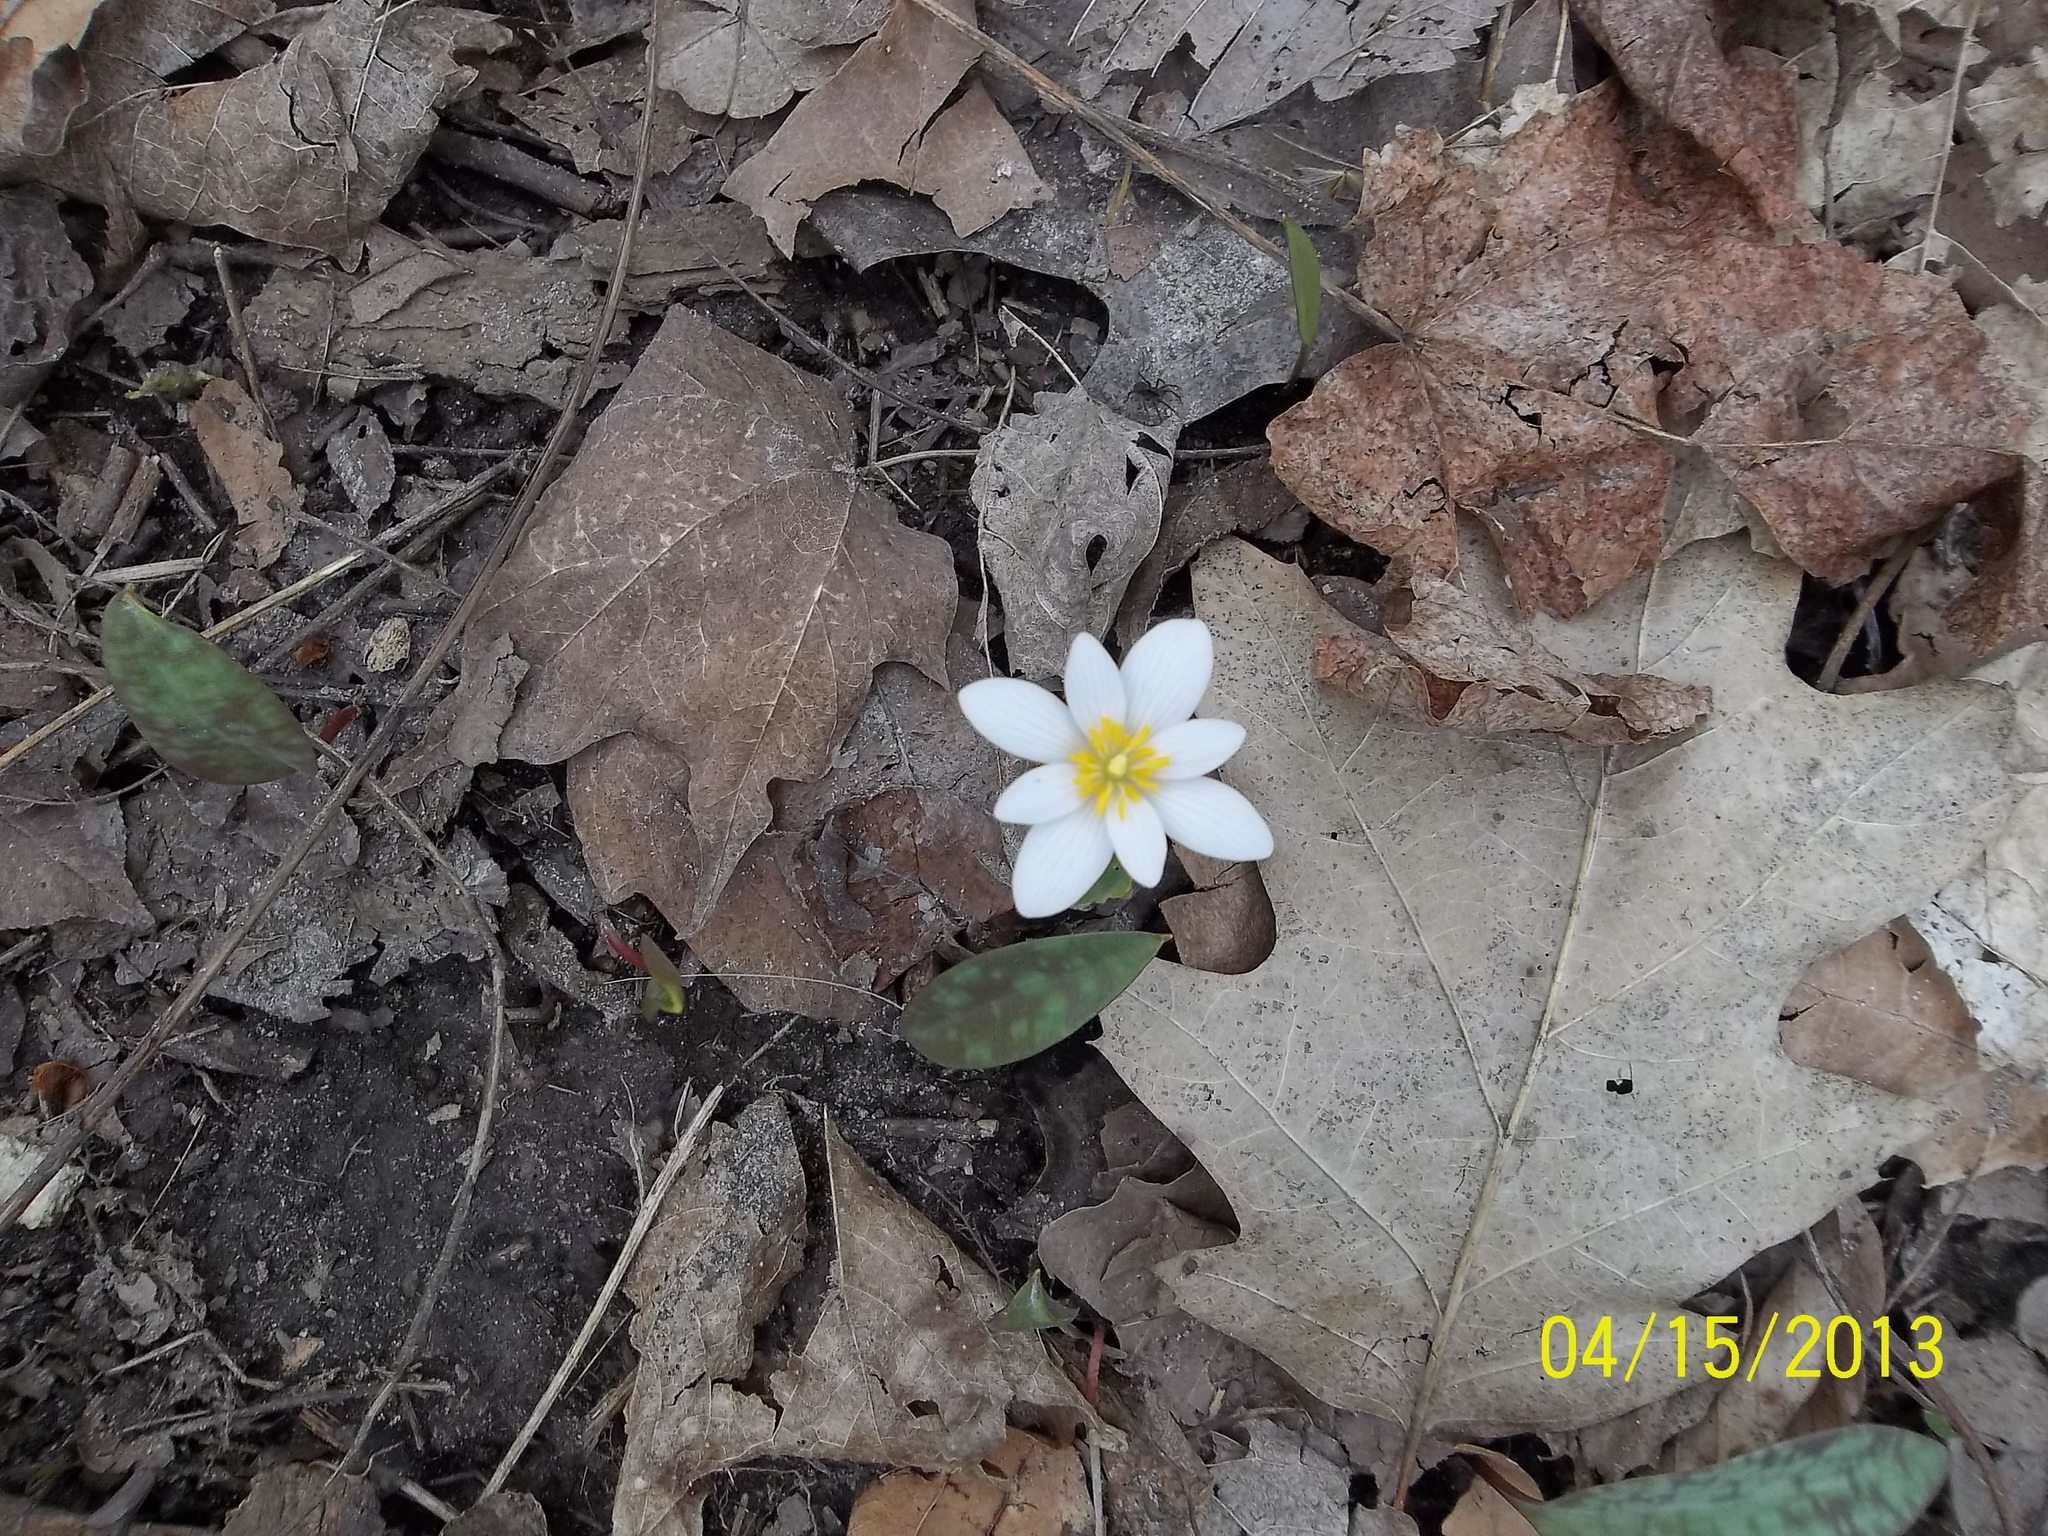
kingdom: Plantae
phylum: Tracheophyta
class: Magnoliopsida
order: Ranunculales
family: Papaveraceae
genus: Sanguinaria
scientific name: Sanguinaria canadensis
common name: Bloodroot
